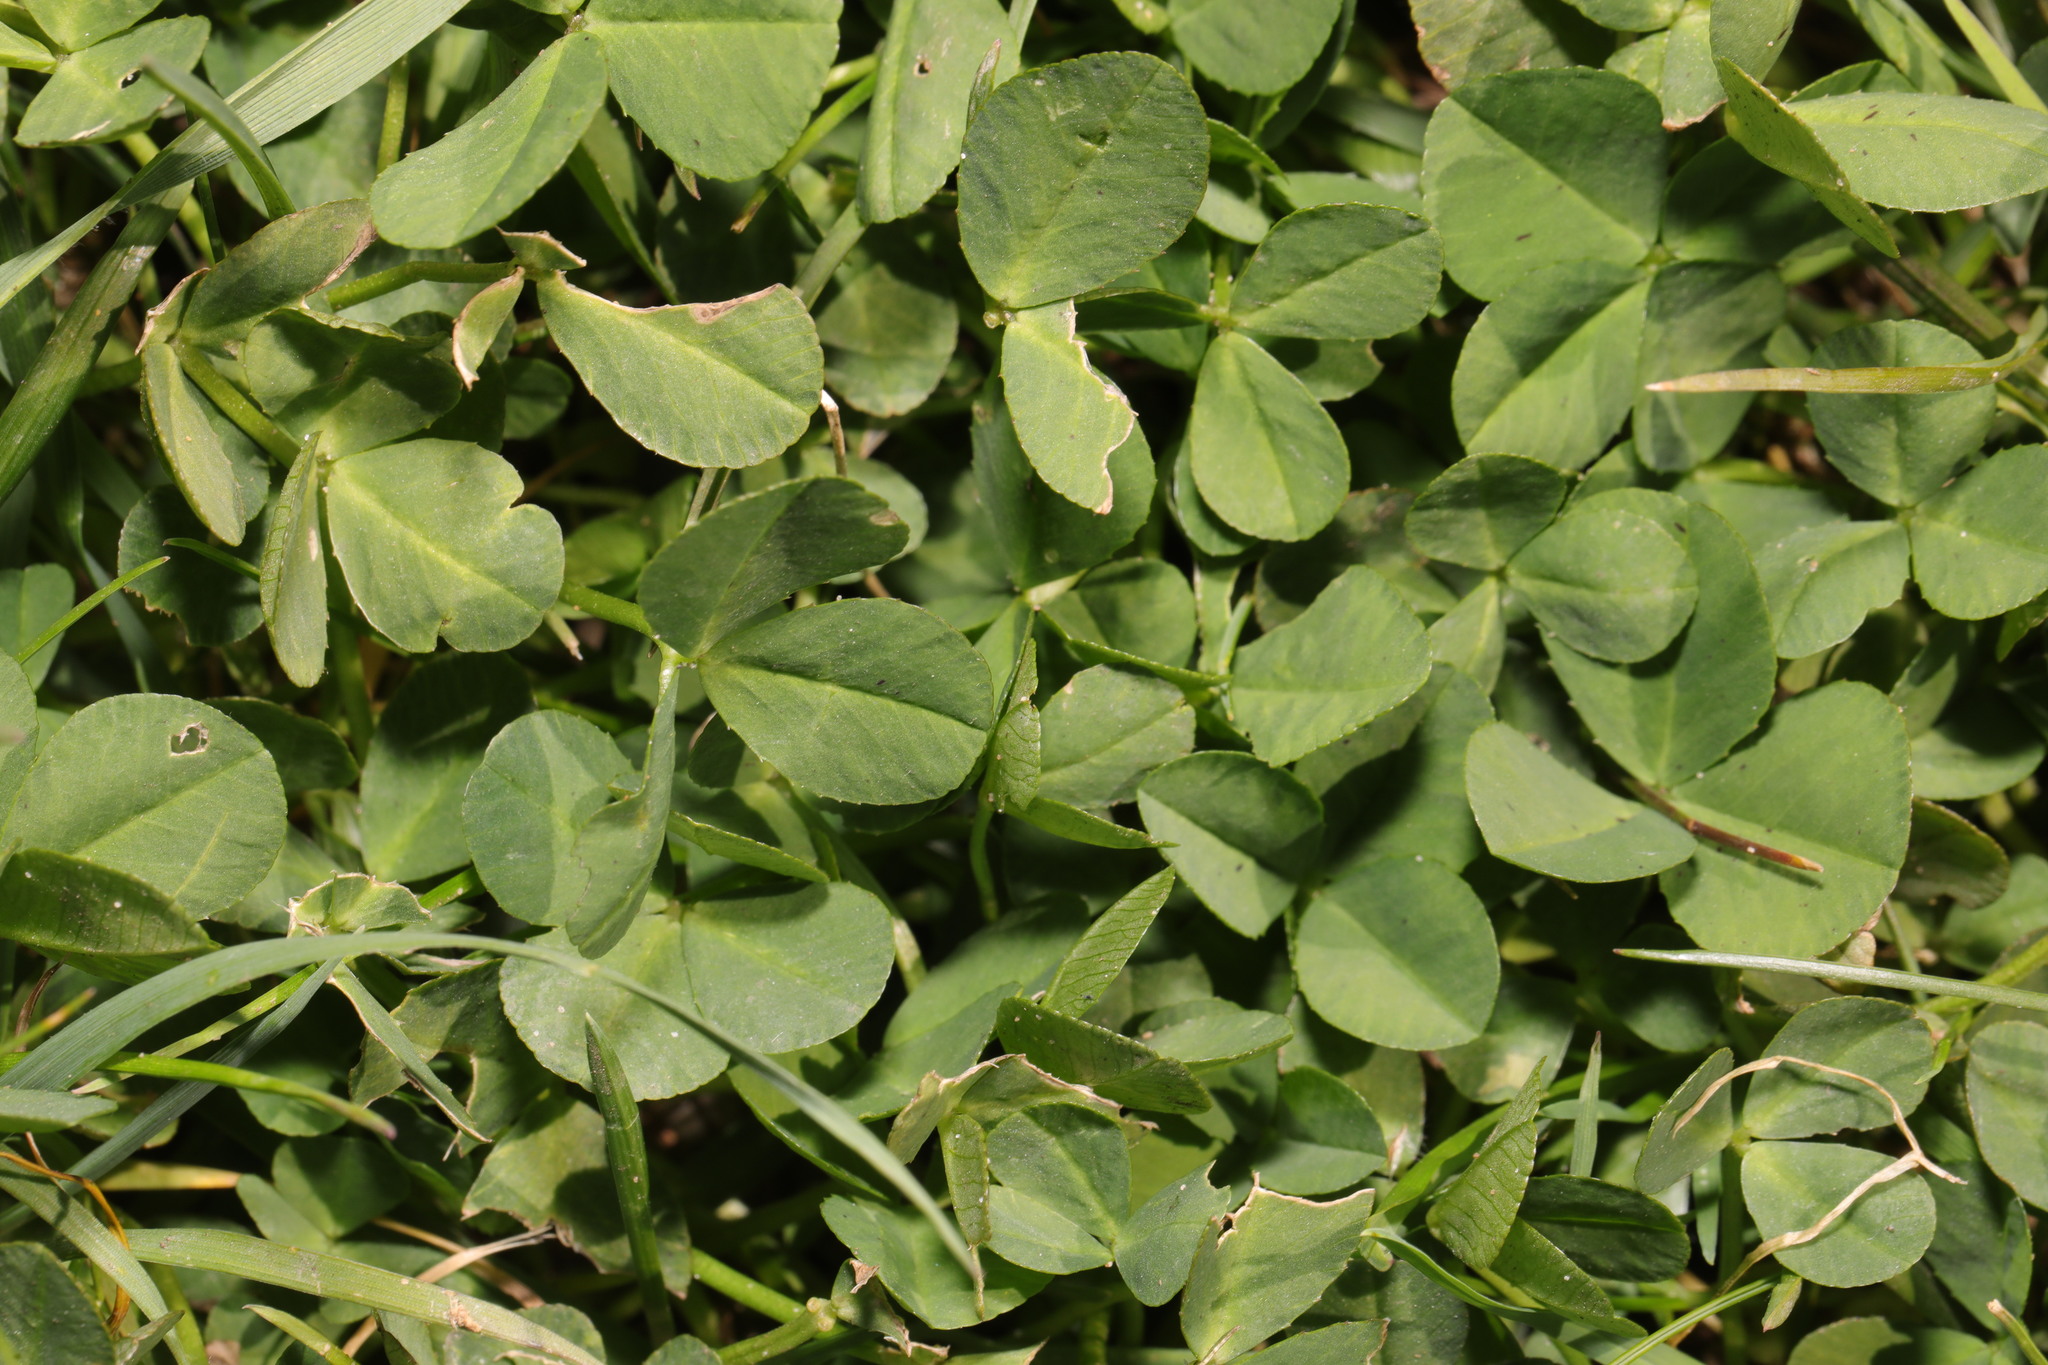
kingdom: Plantae
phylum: Tracheophyta
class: Magnoliopsida
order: Fabales
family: Fabaceae
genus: Trifolium
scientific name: Trifolium repens
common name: White clover
